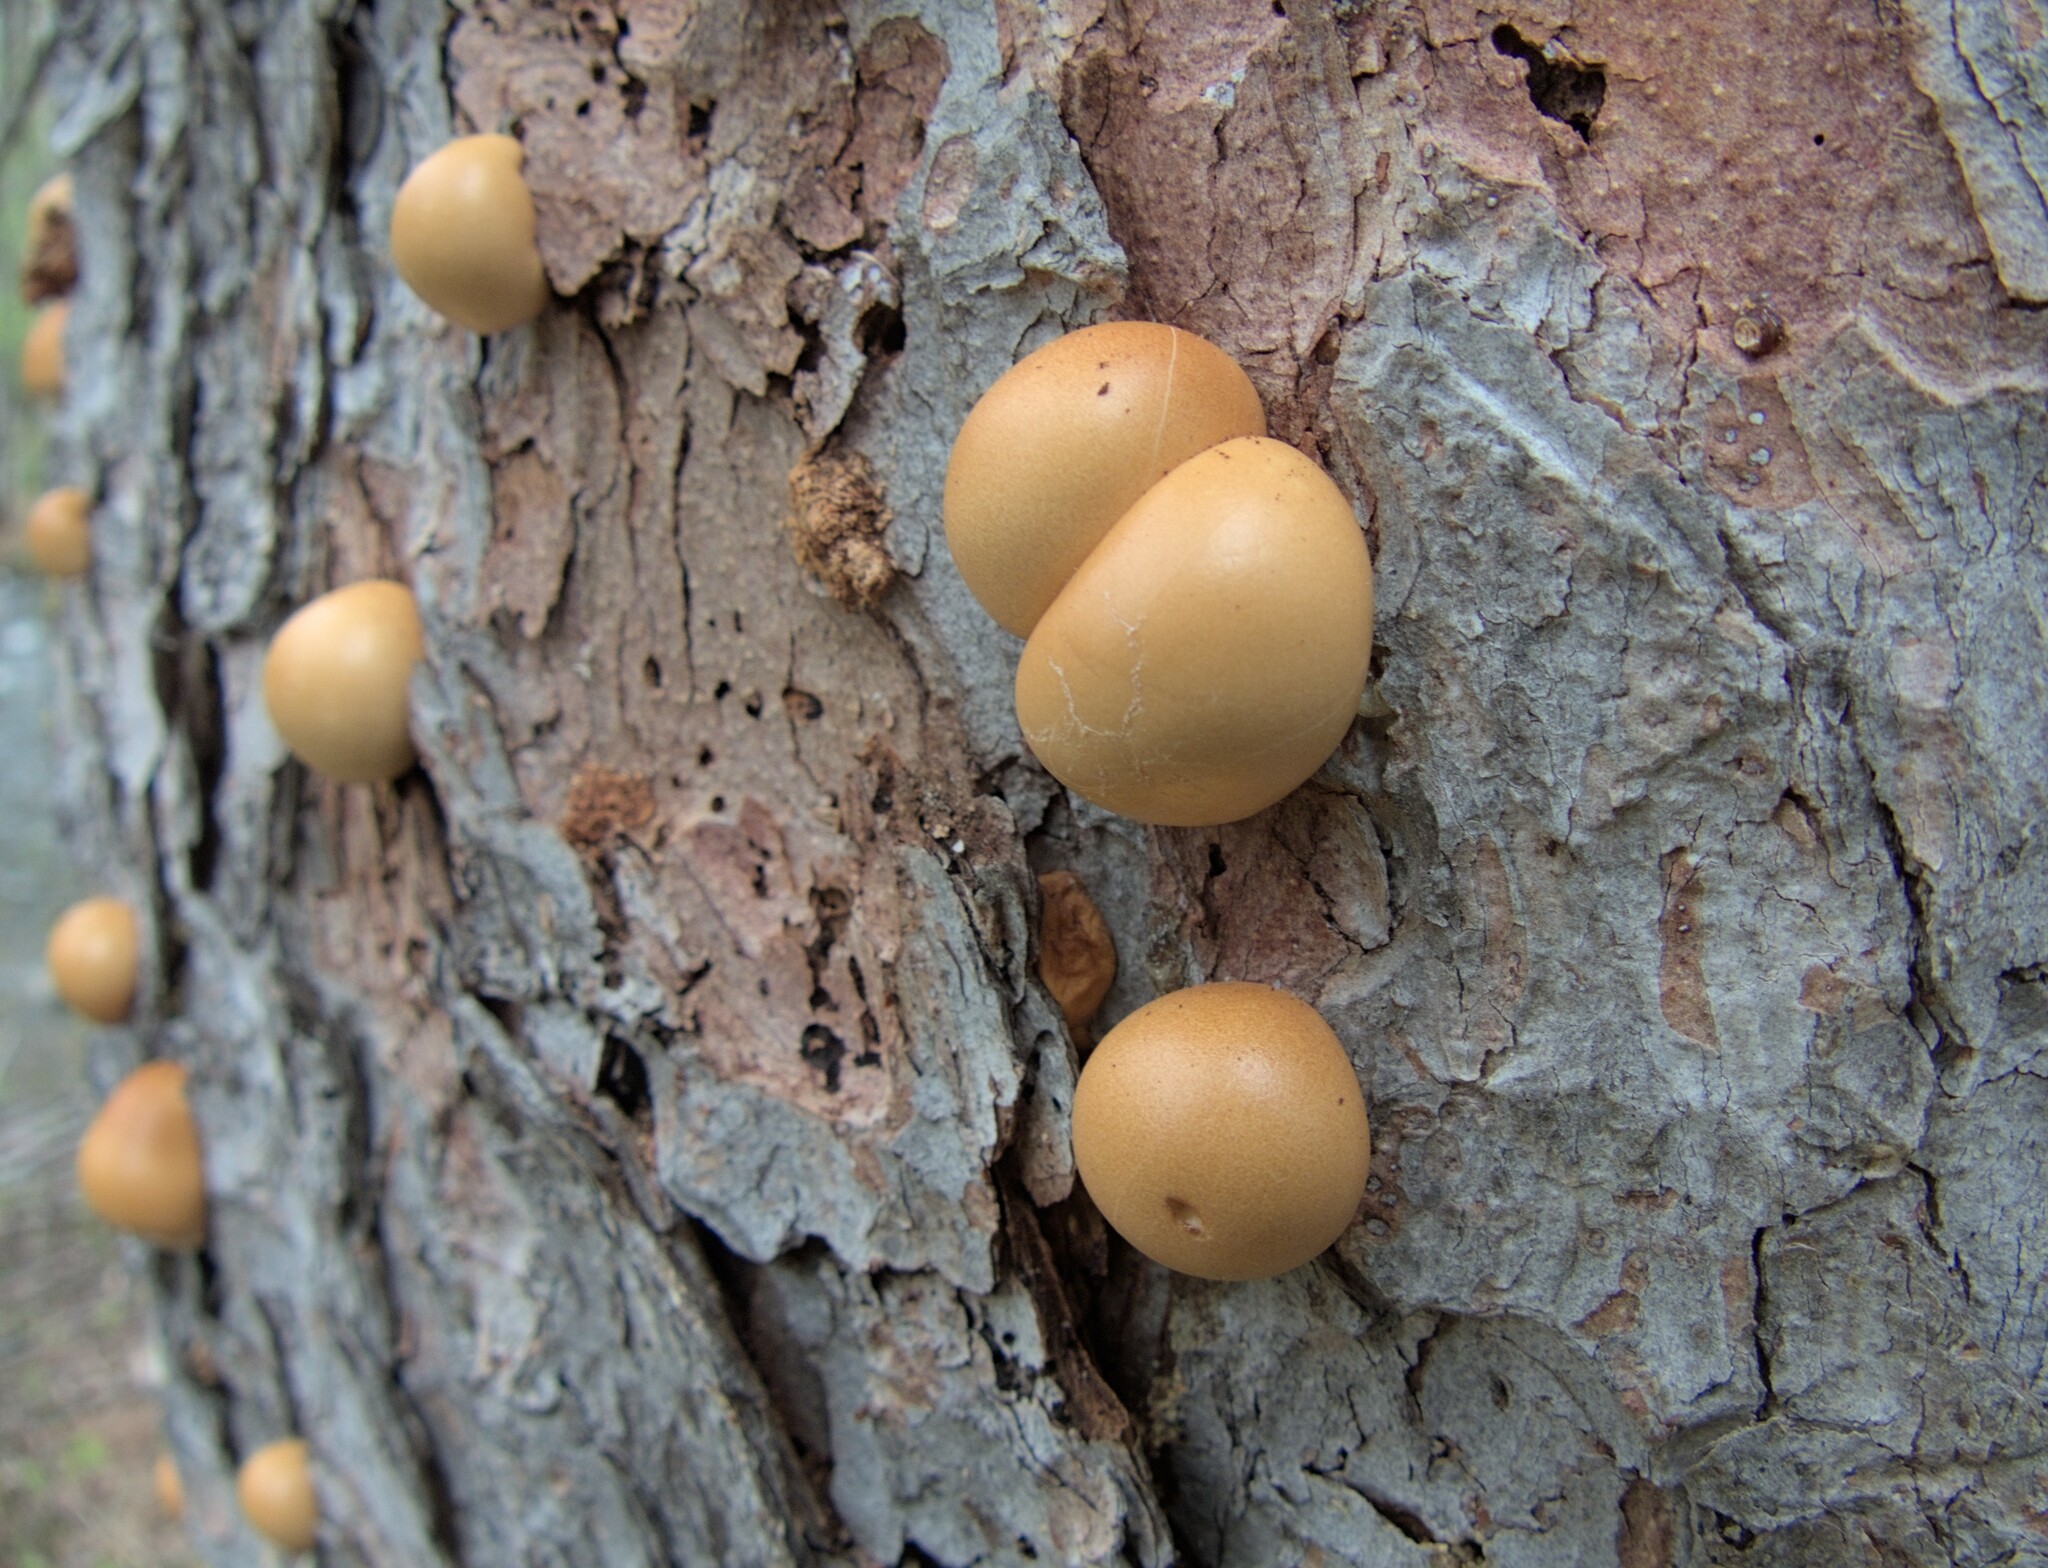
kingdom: Fungi
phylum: Basidiomycota
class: Agaricomycetes
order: Polyporales
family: Polyporaceae
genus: Cryptoporus
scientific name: Cryptoporus volvatus
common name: Veiled polypore
